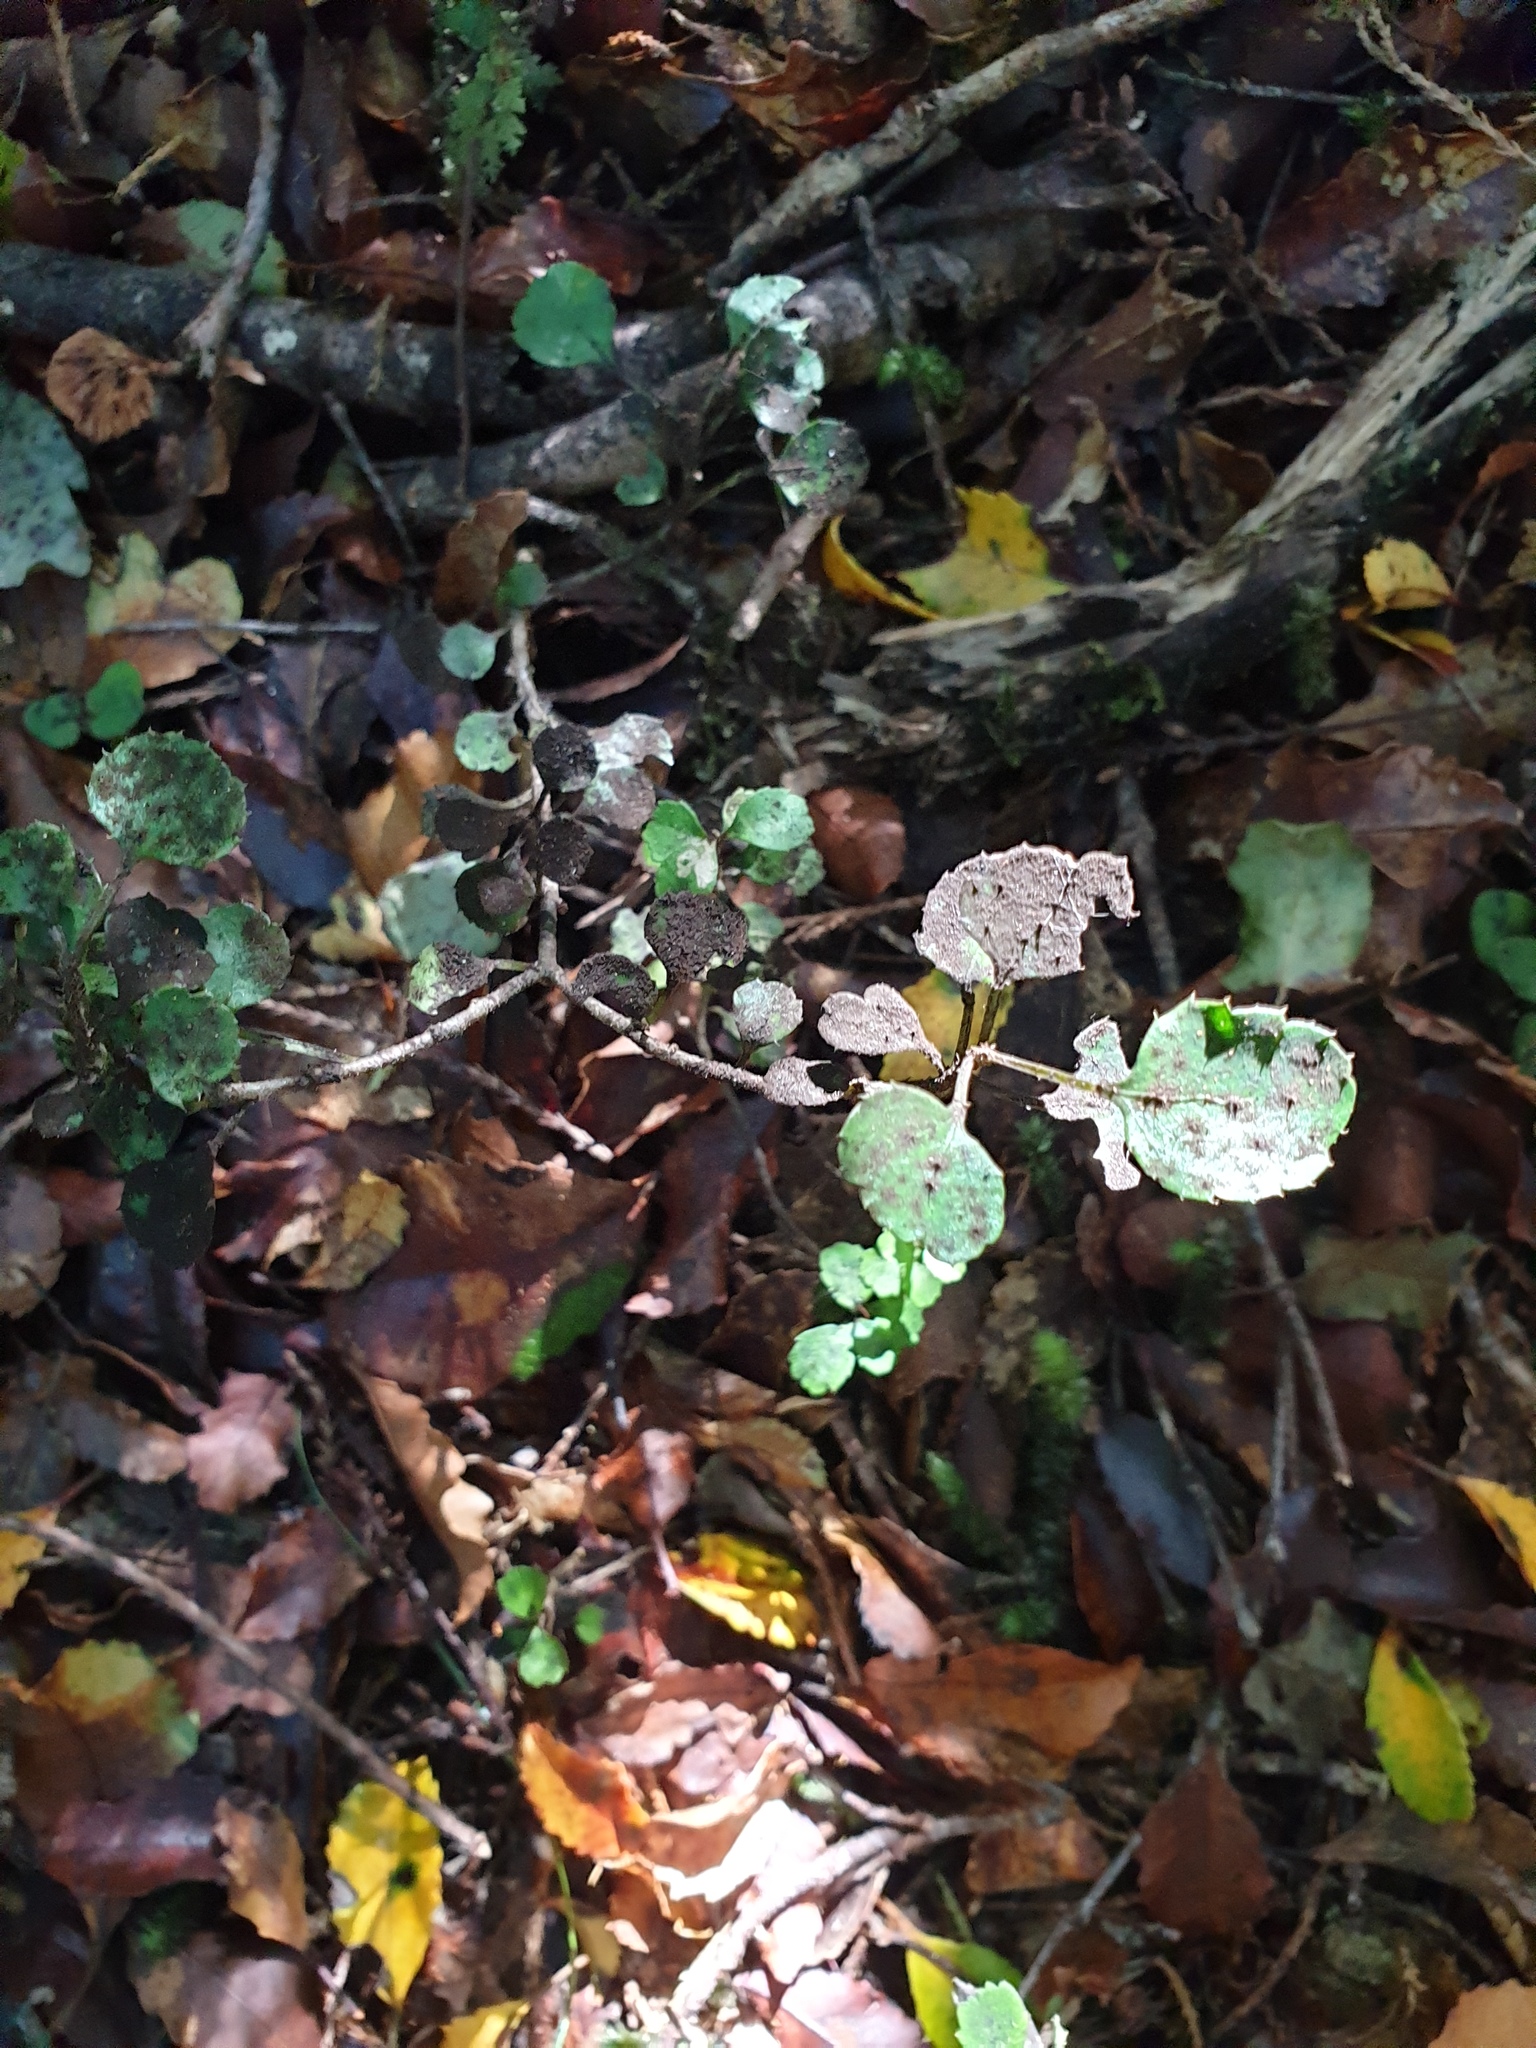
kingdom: Plantae
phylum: Tracheophyta
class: Magnoliopsida
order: Apiales
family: Araliaceae
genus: Raukaua
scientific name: Raukaua anomalus
